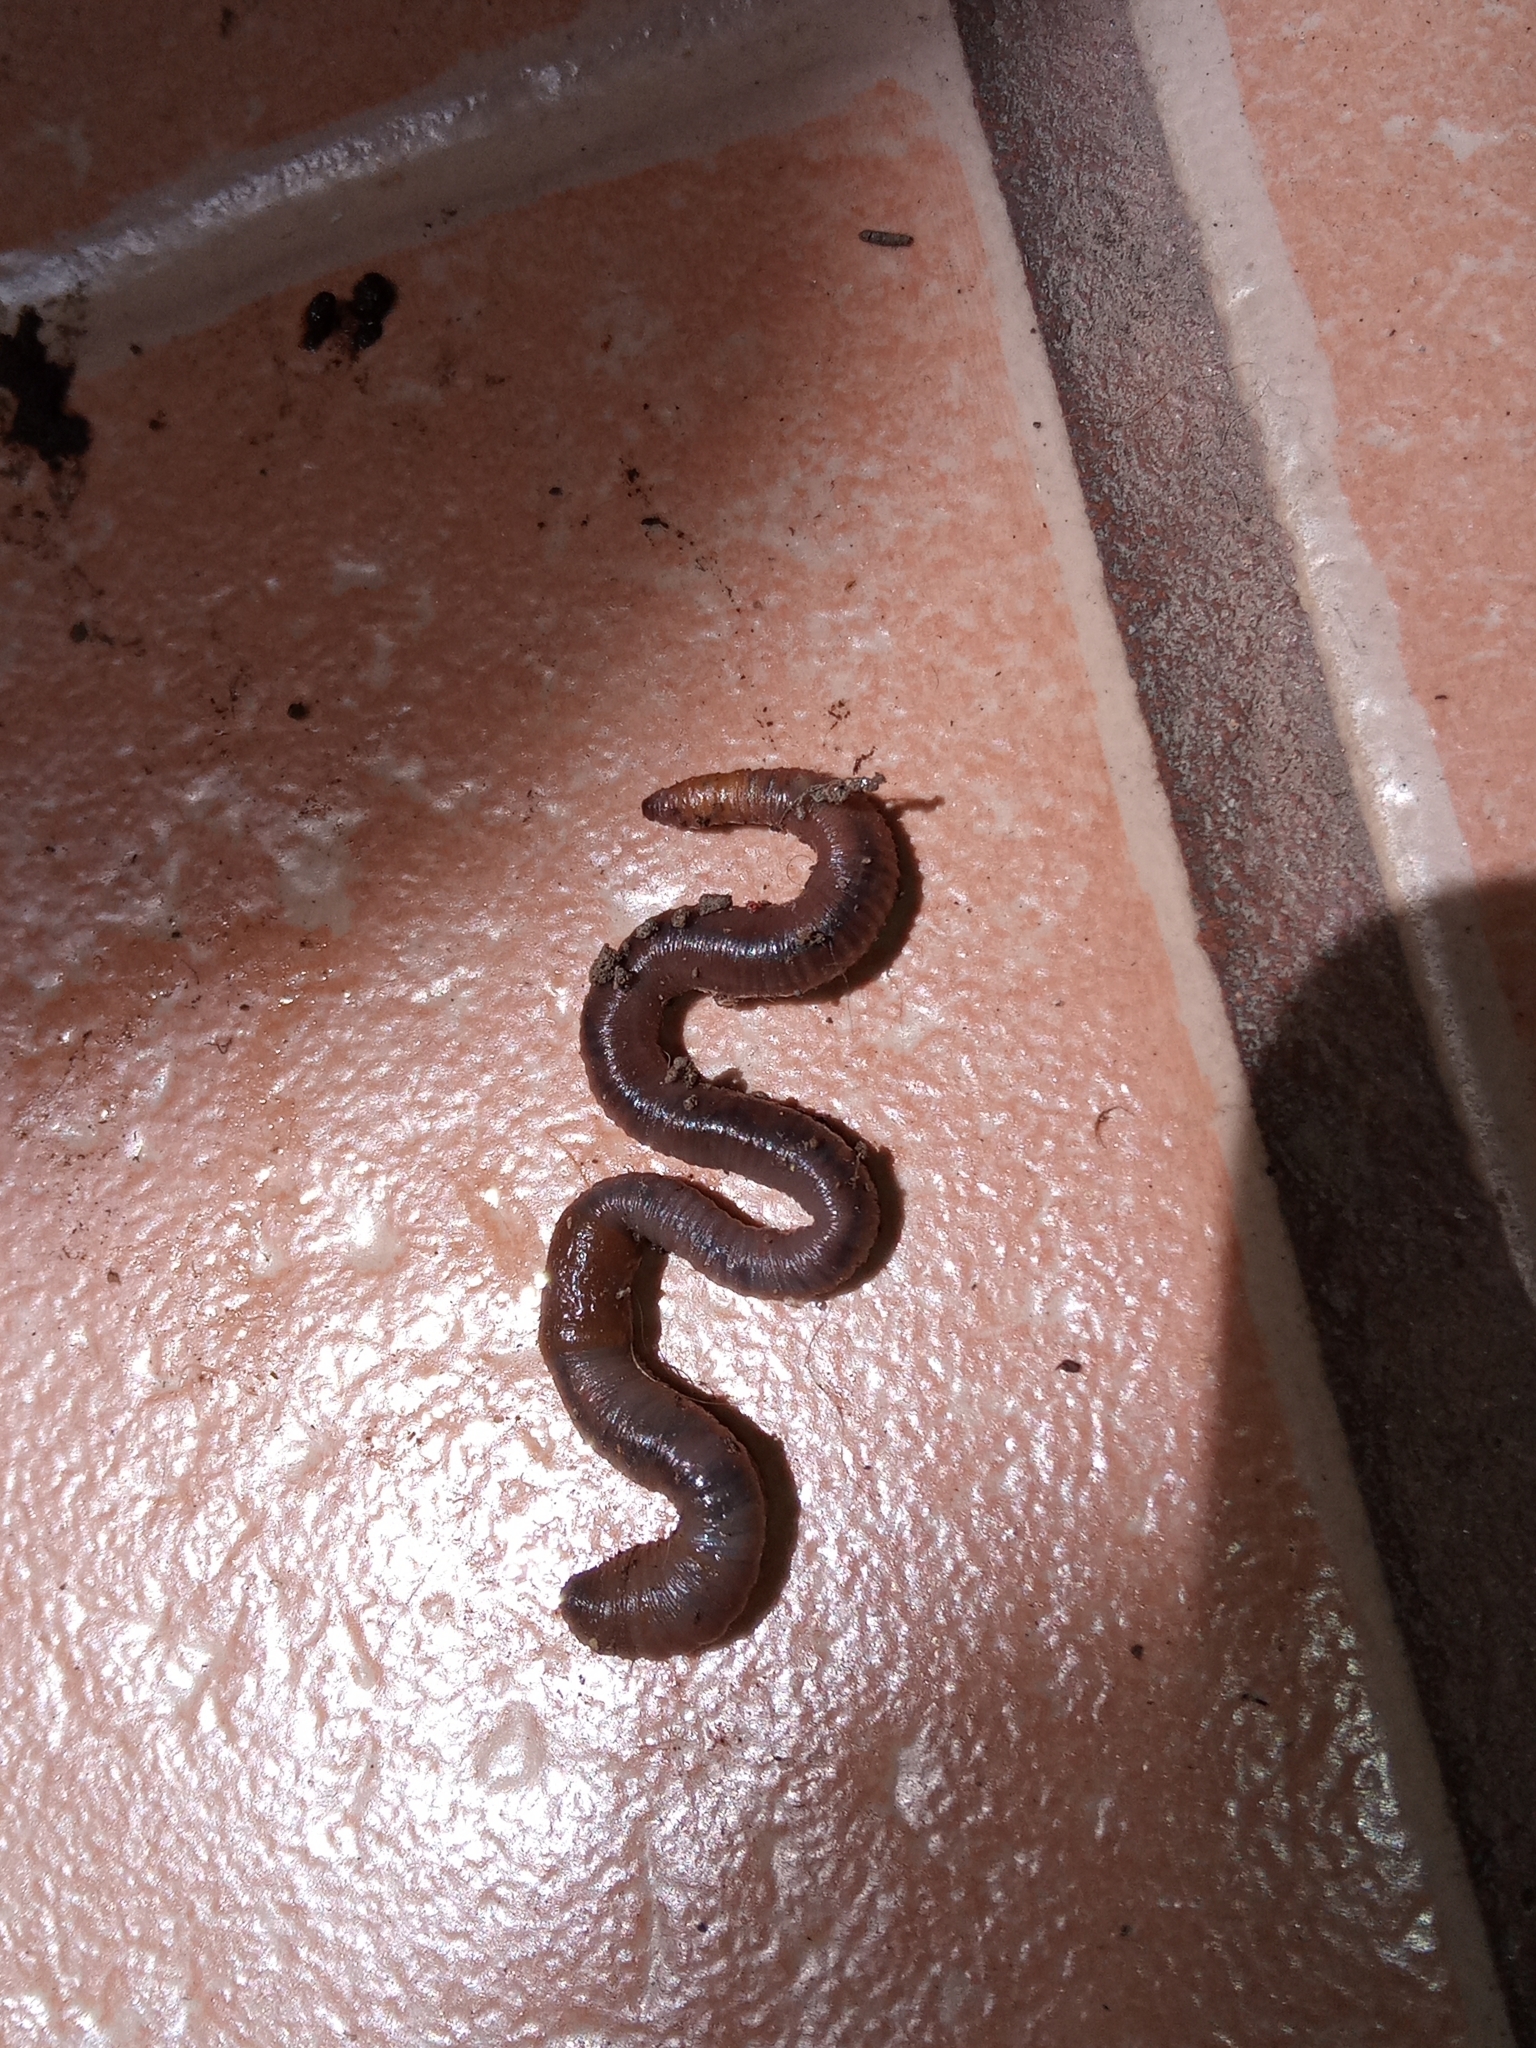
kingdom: Animalia
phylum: Annelida
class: Clitellata
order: Crassiclitellata
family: Lumbricidae
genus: Lumbricus
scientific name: Lumbricus terrestris
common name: Common earthworm
